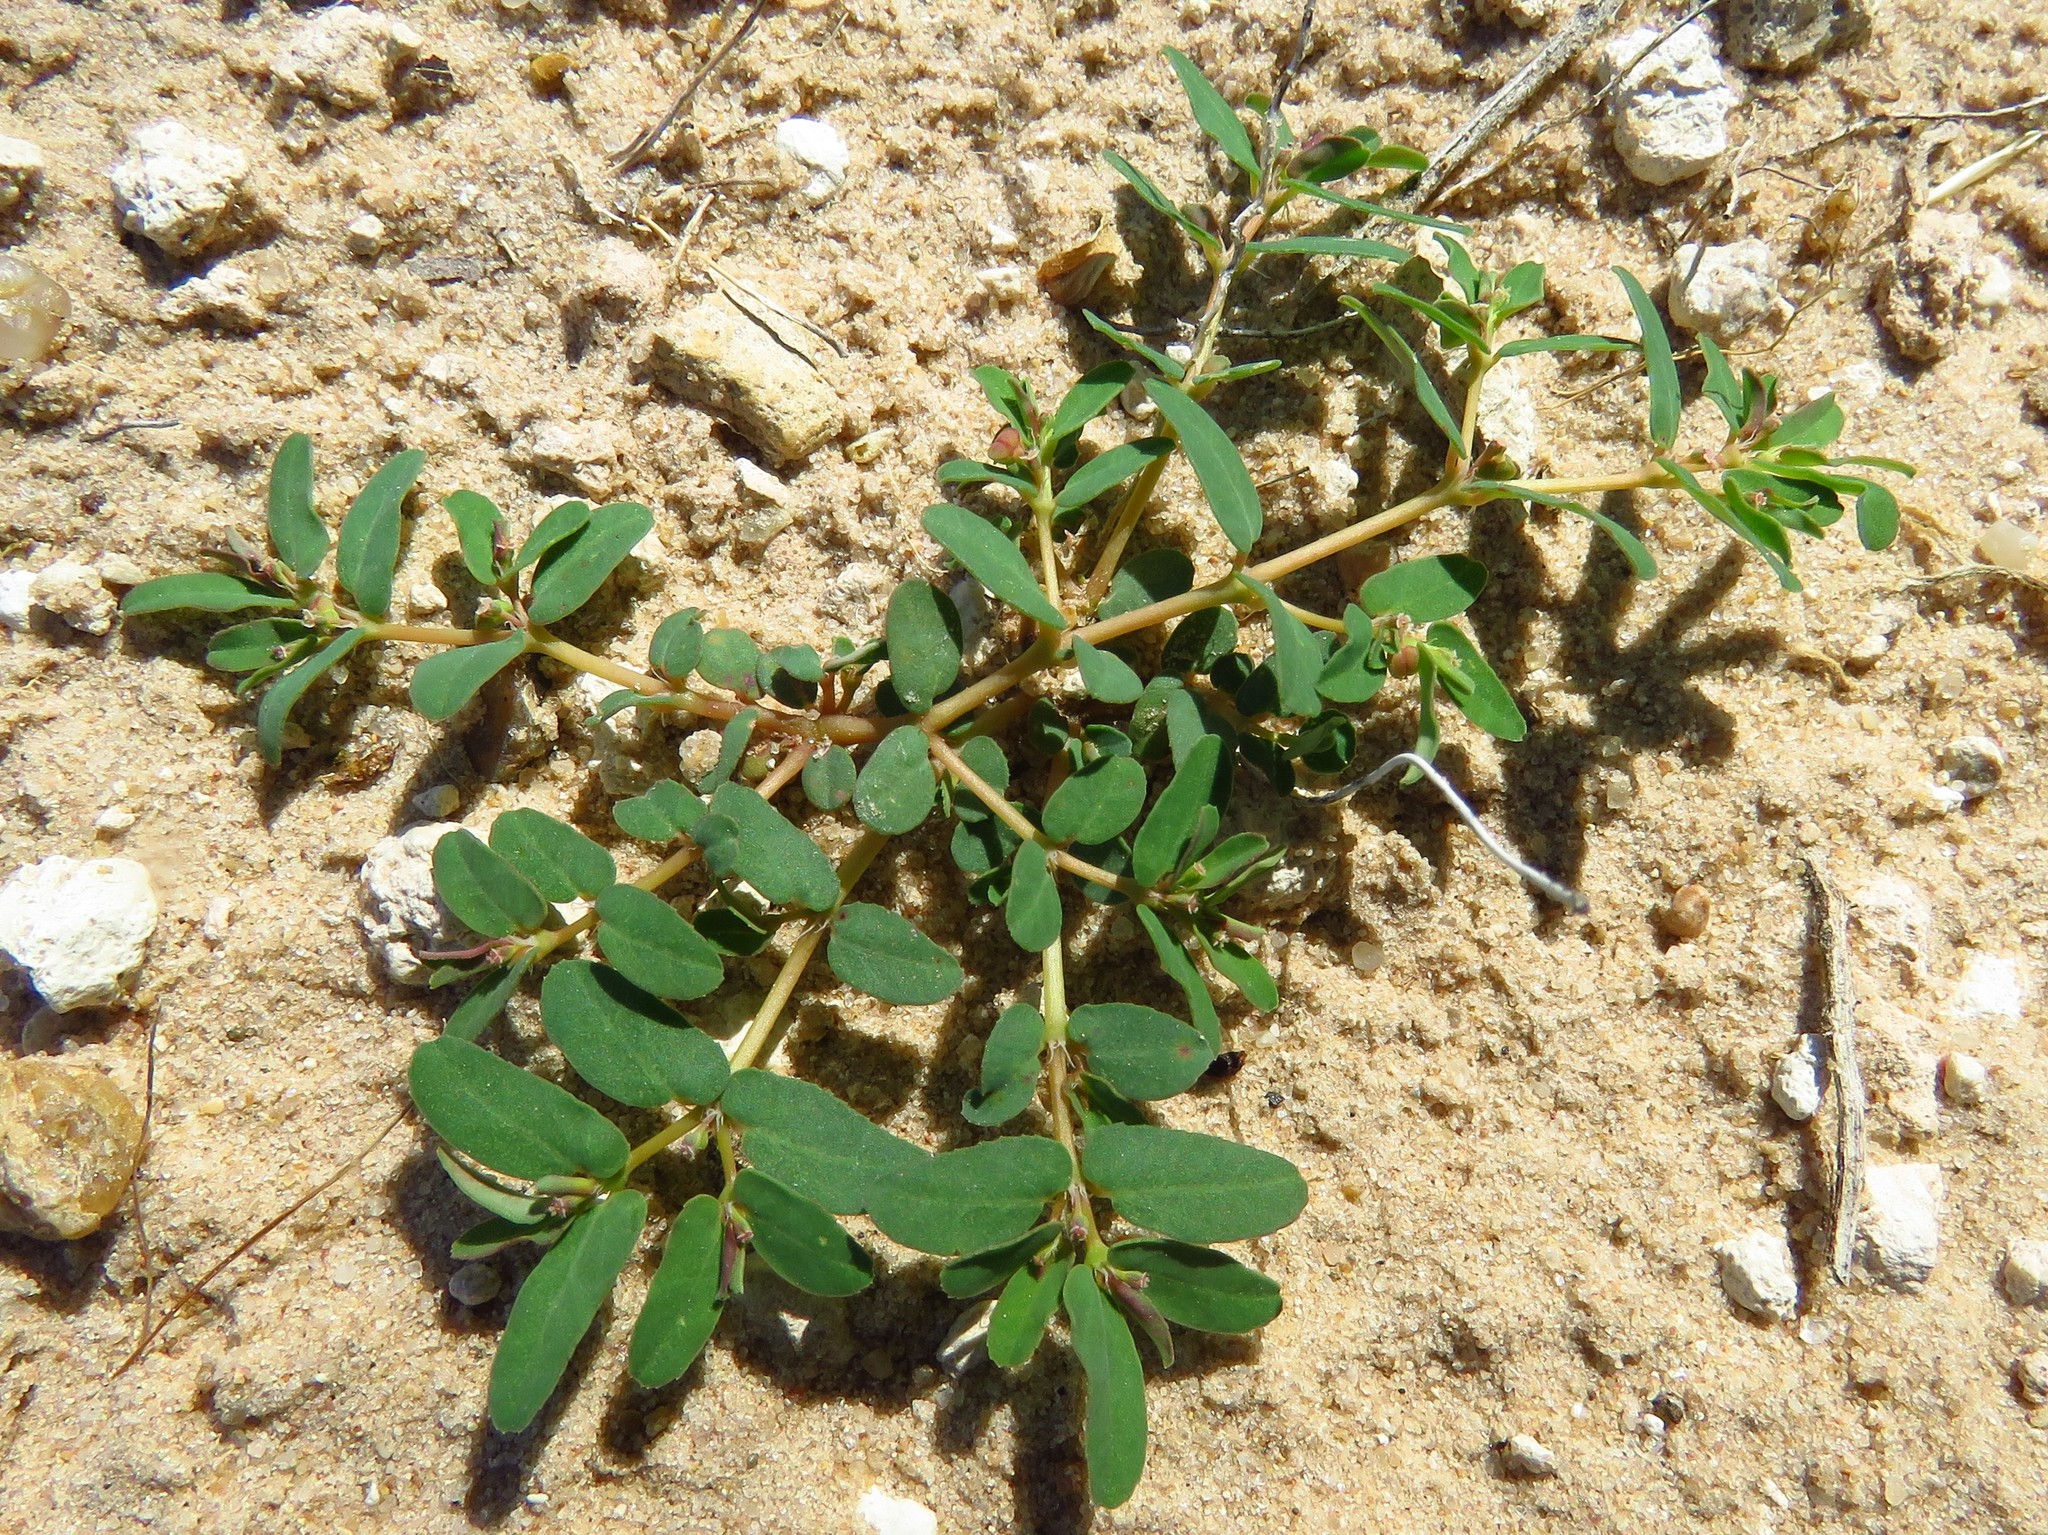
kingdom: Plantae
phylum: Tracheophyta
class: Magnoliopsida
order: Malpighiales
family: Euphorbiaceae
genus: Euphorbia
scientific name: Euphorbia glyptosperma
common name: Corrugate-seeded spurge
